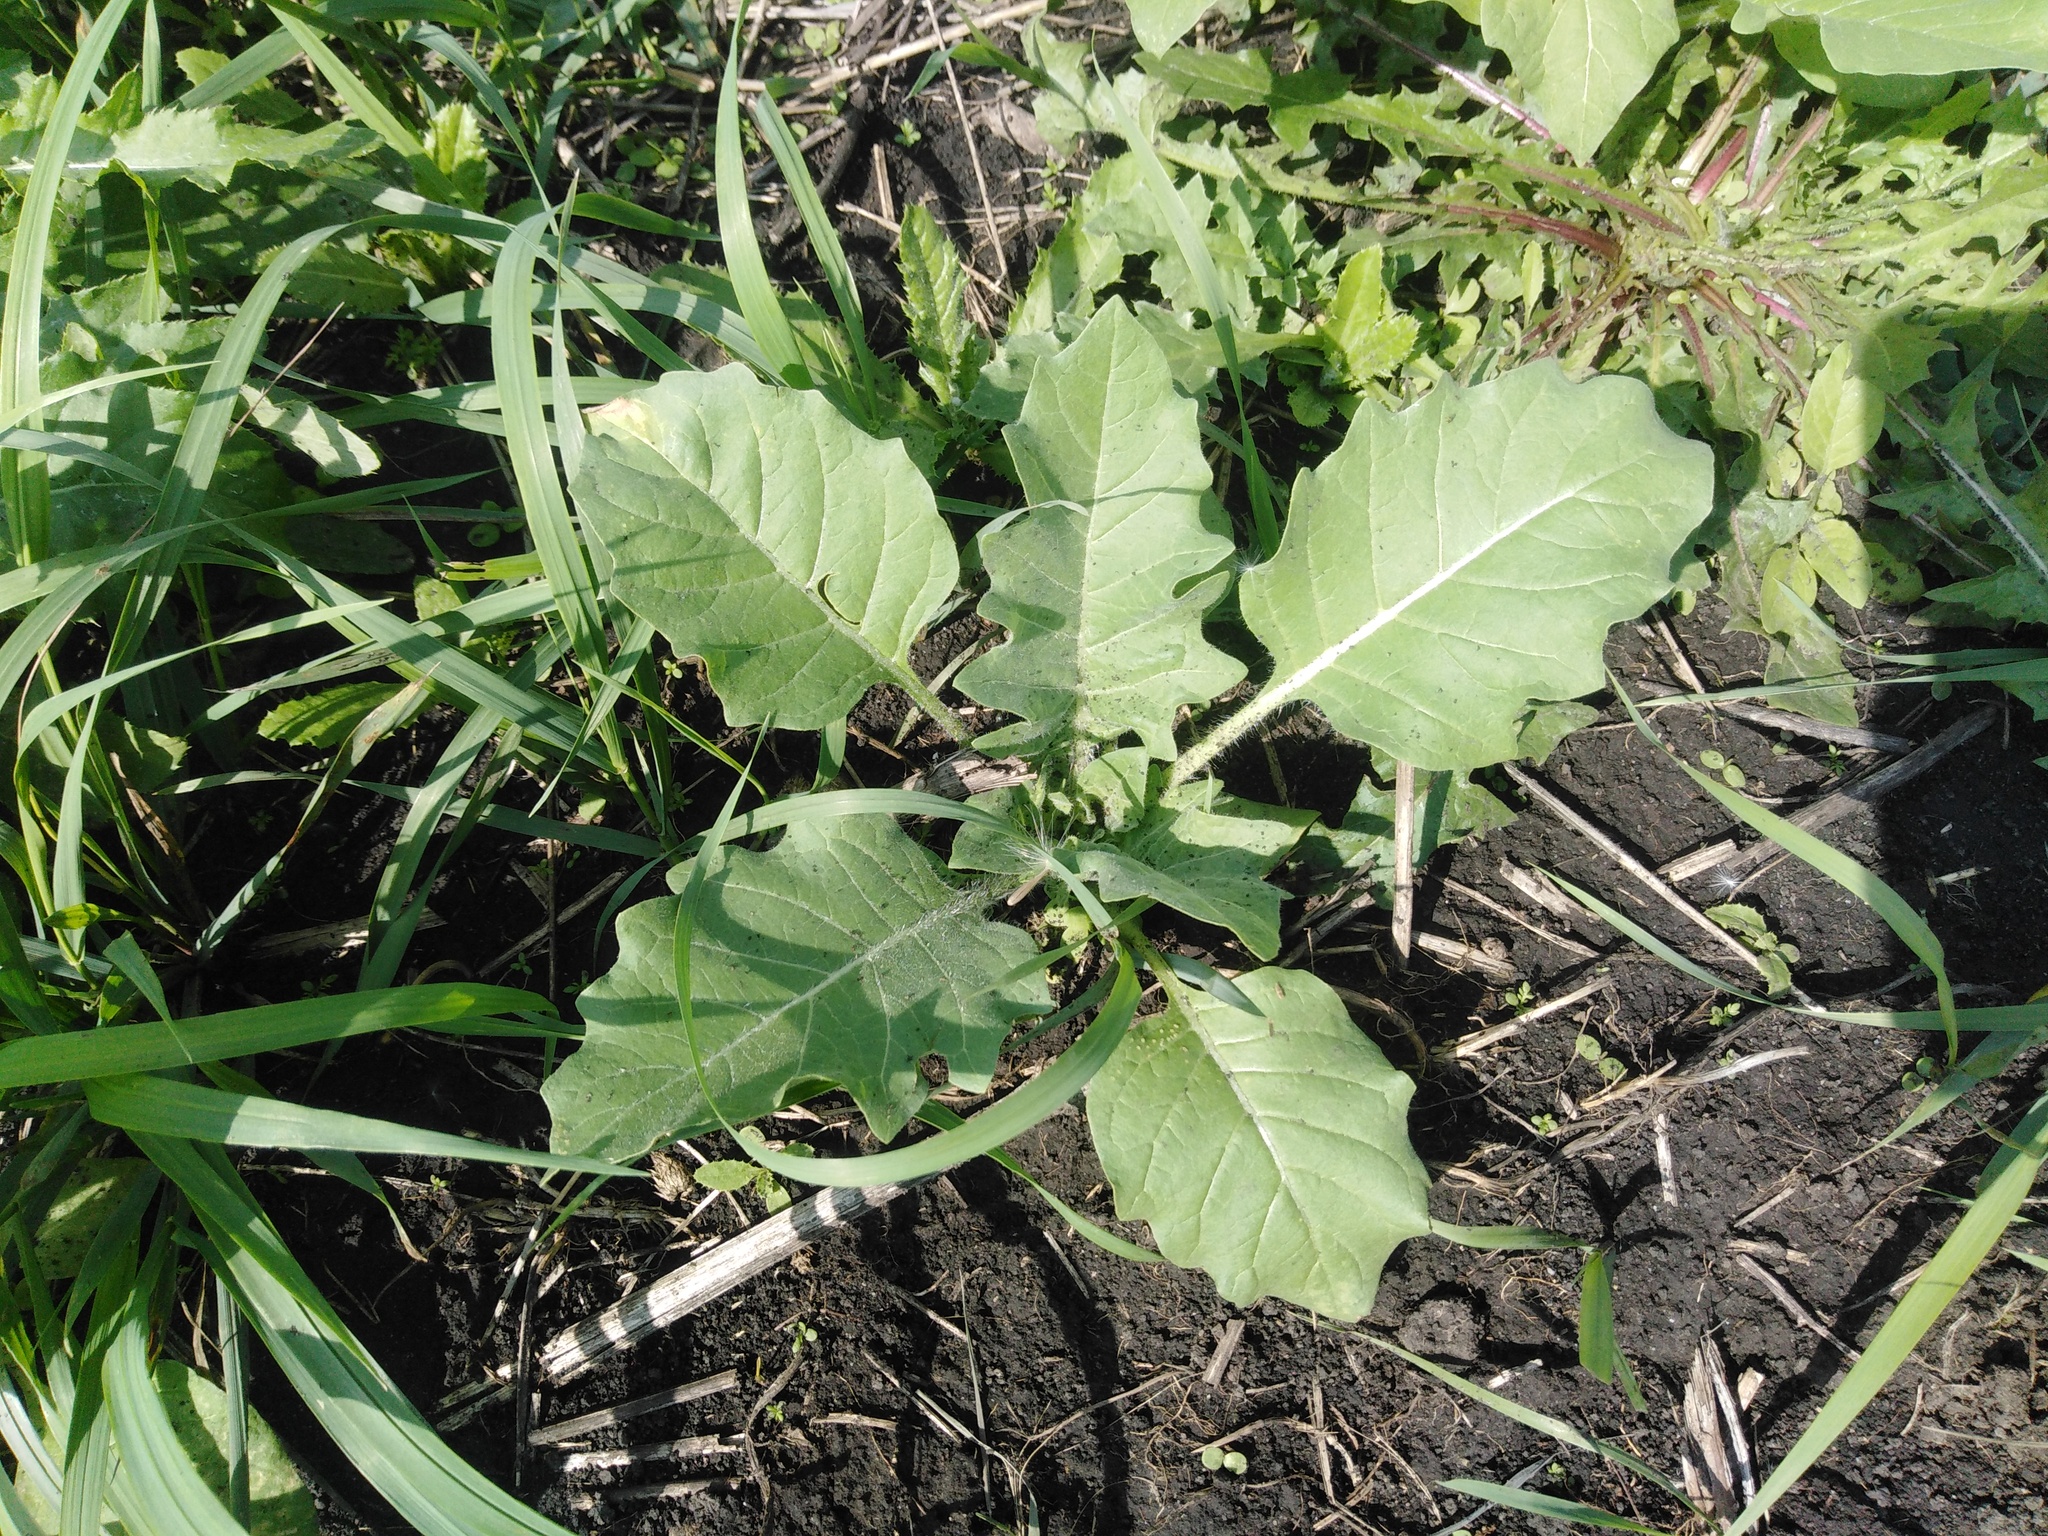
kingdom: Plantae
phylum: Tracheophyta
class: Magnoliopsida
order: Solanales
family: Solanaceae
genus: Hyoscyamus
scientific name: Hyoscyamus niger
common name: Henbane
